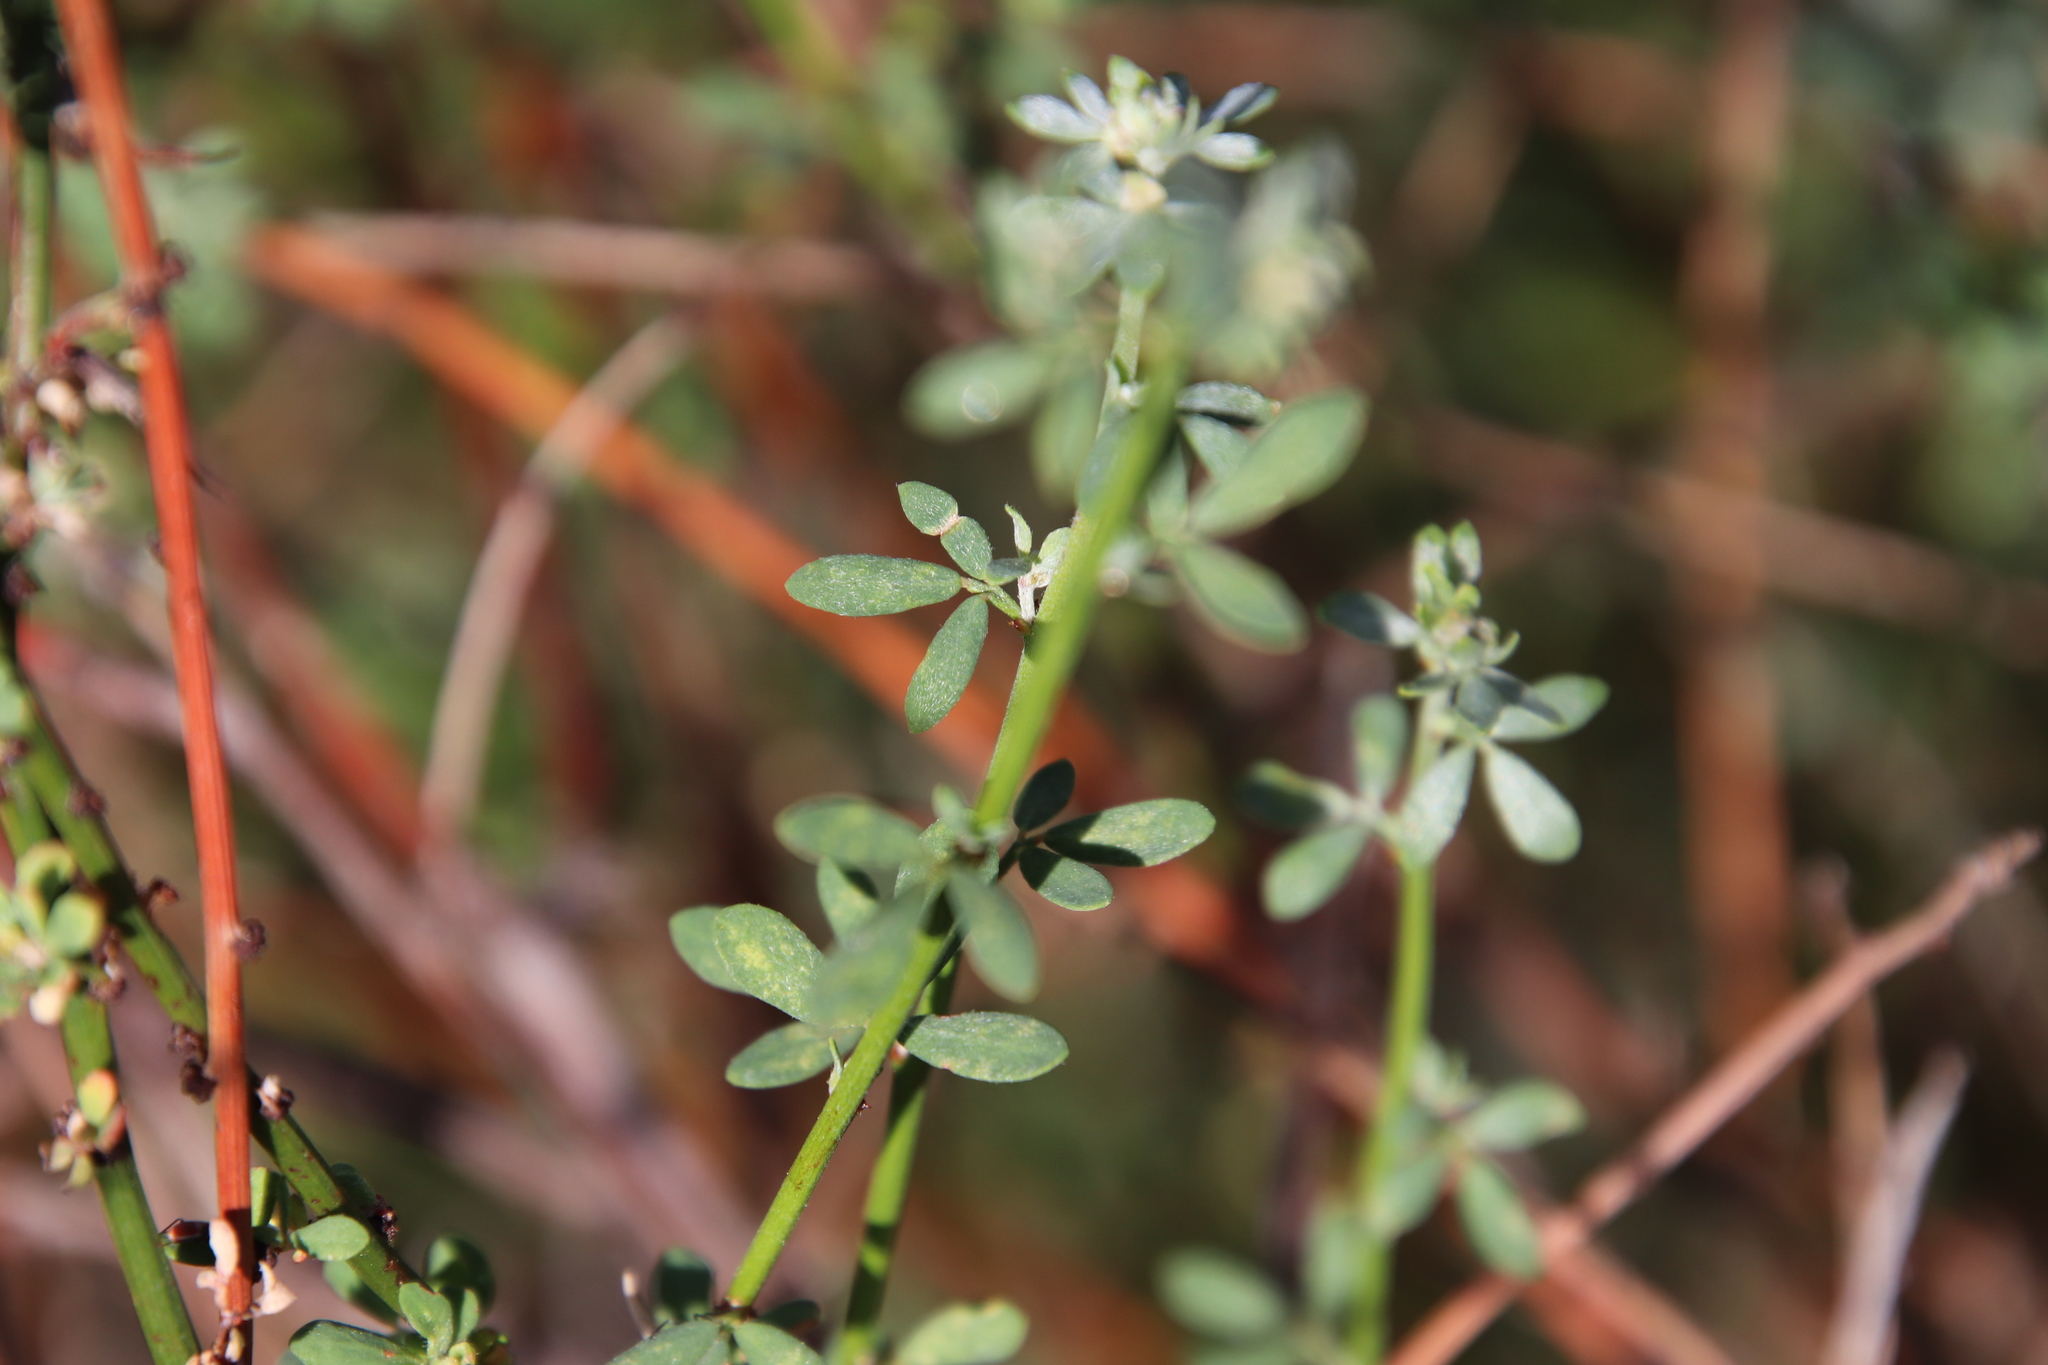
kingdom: Plantae
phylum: Tracheophyta
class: Magnoliopsida
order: Fabales
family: Fabaceae
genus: Acmispon
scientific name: Acmispon glaber
